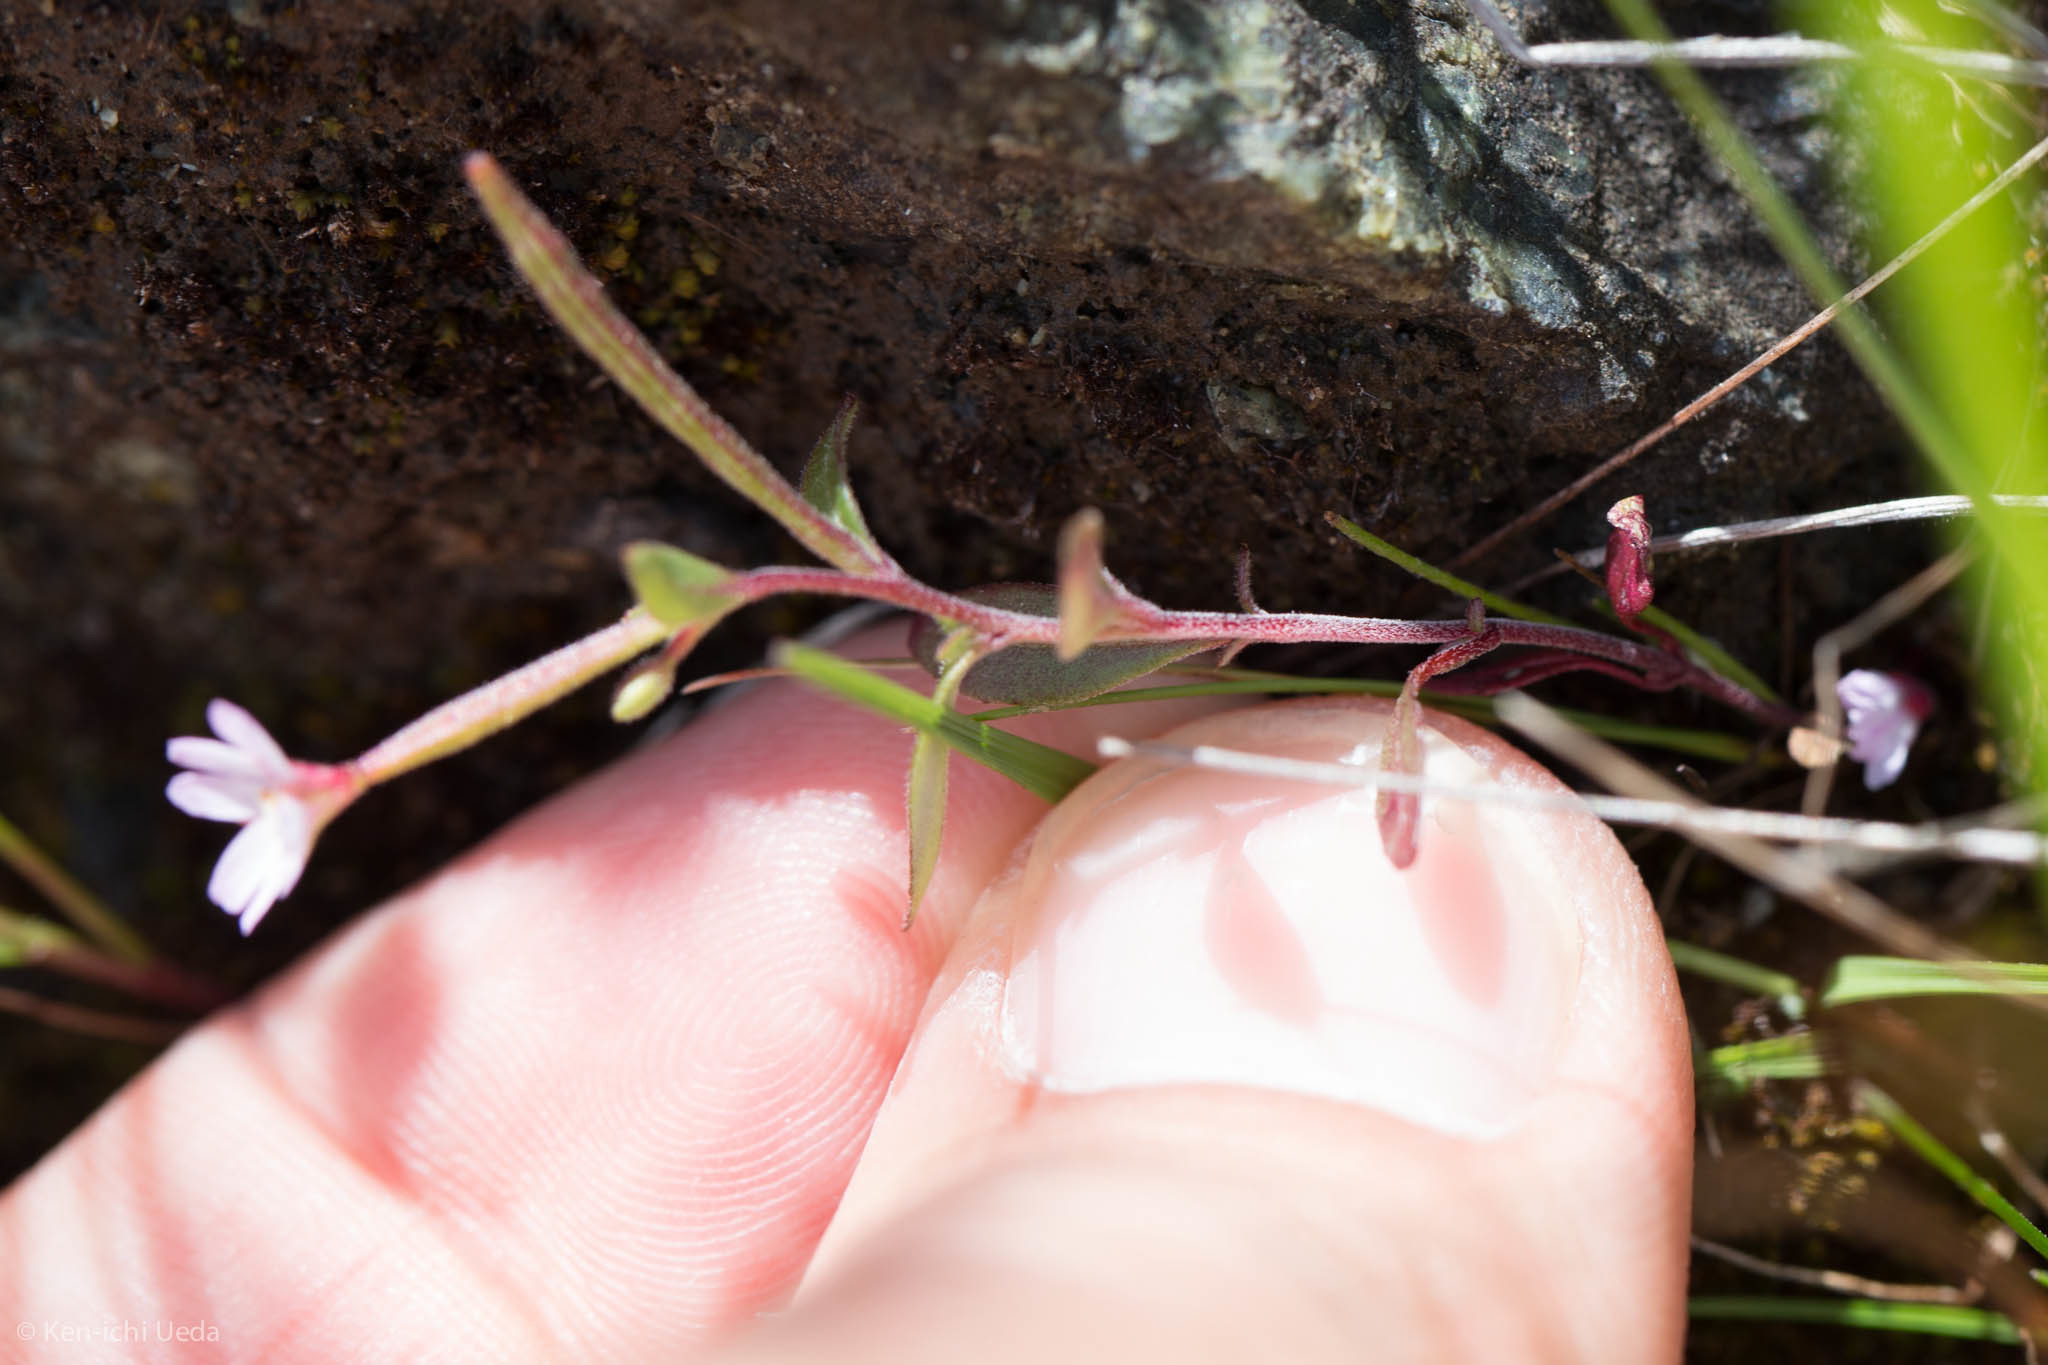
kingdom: Plantae
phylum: Tracheophyta
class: Magnoliopsida
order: Myrtales
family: Onagraceae
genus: Epilobium
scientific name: Epilobium minutum
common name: Chaparral willowherb
